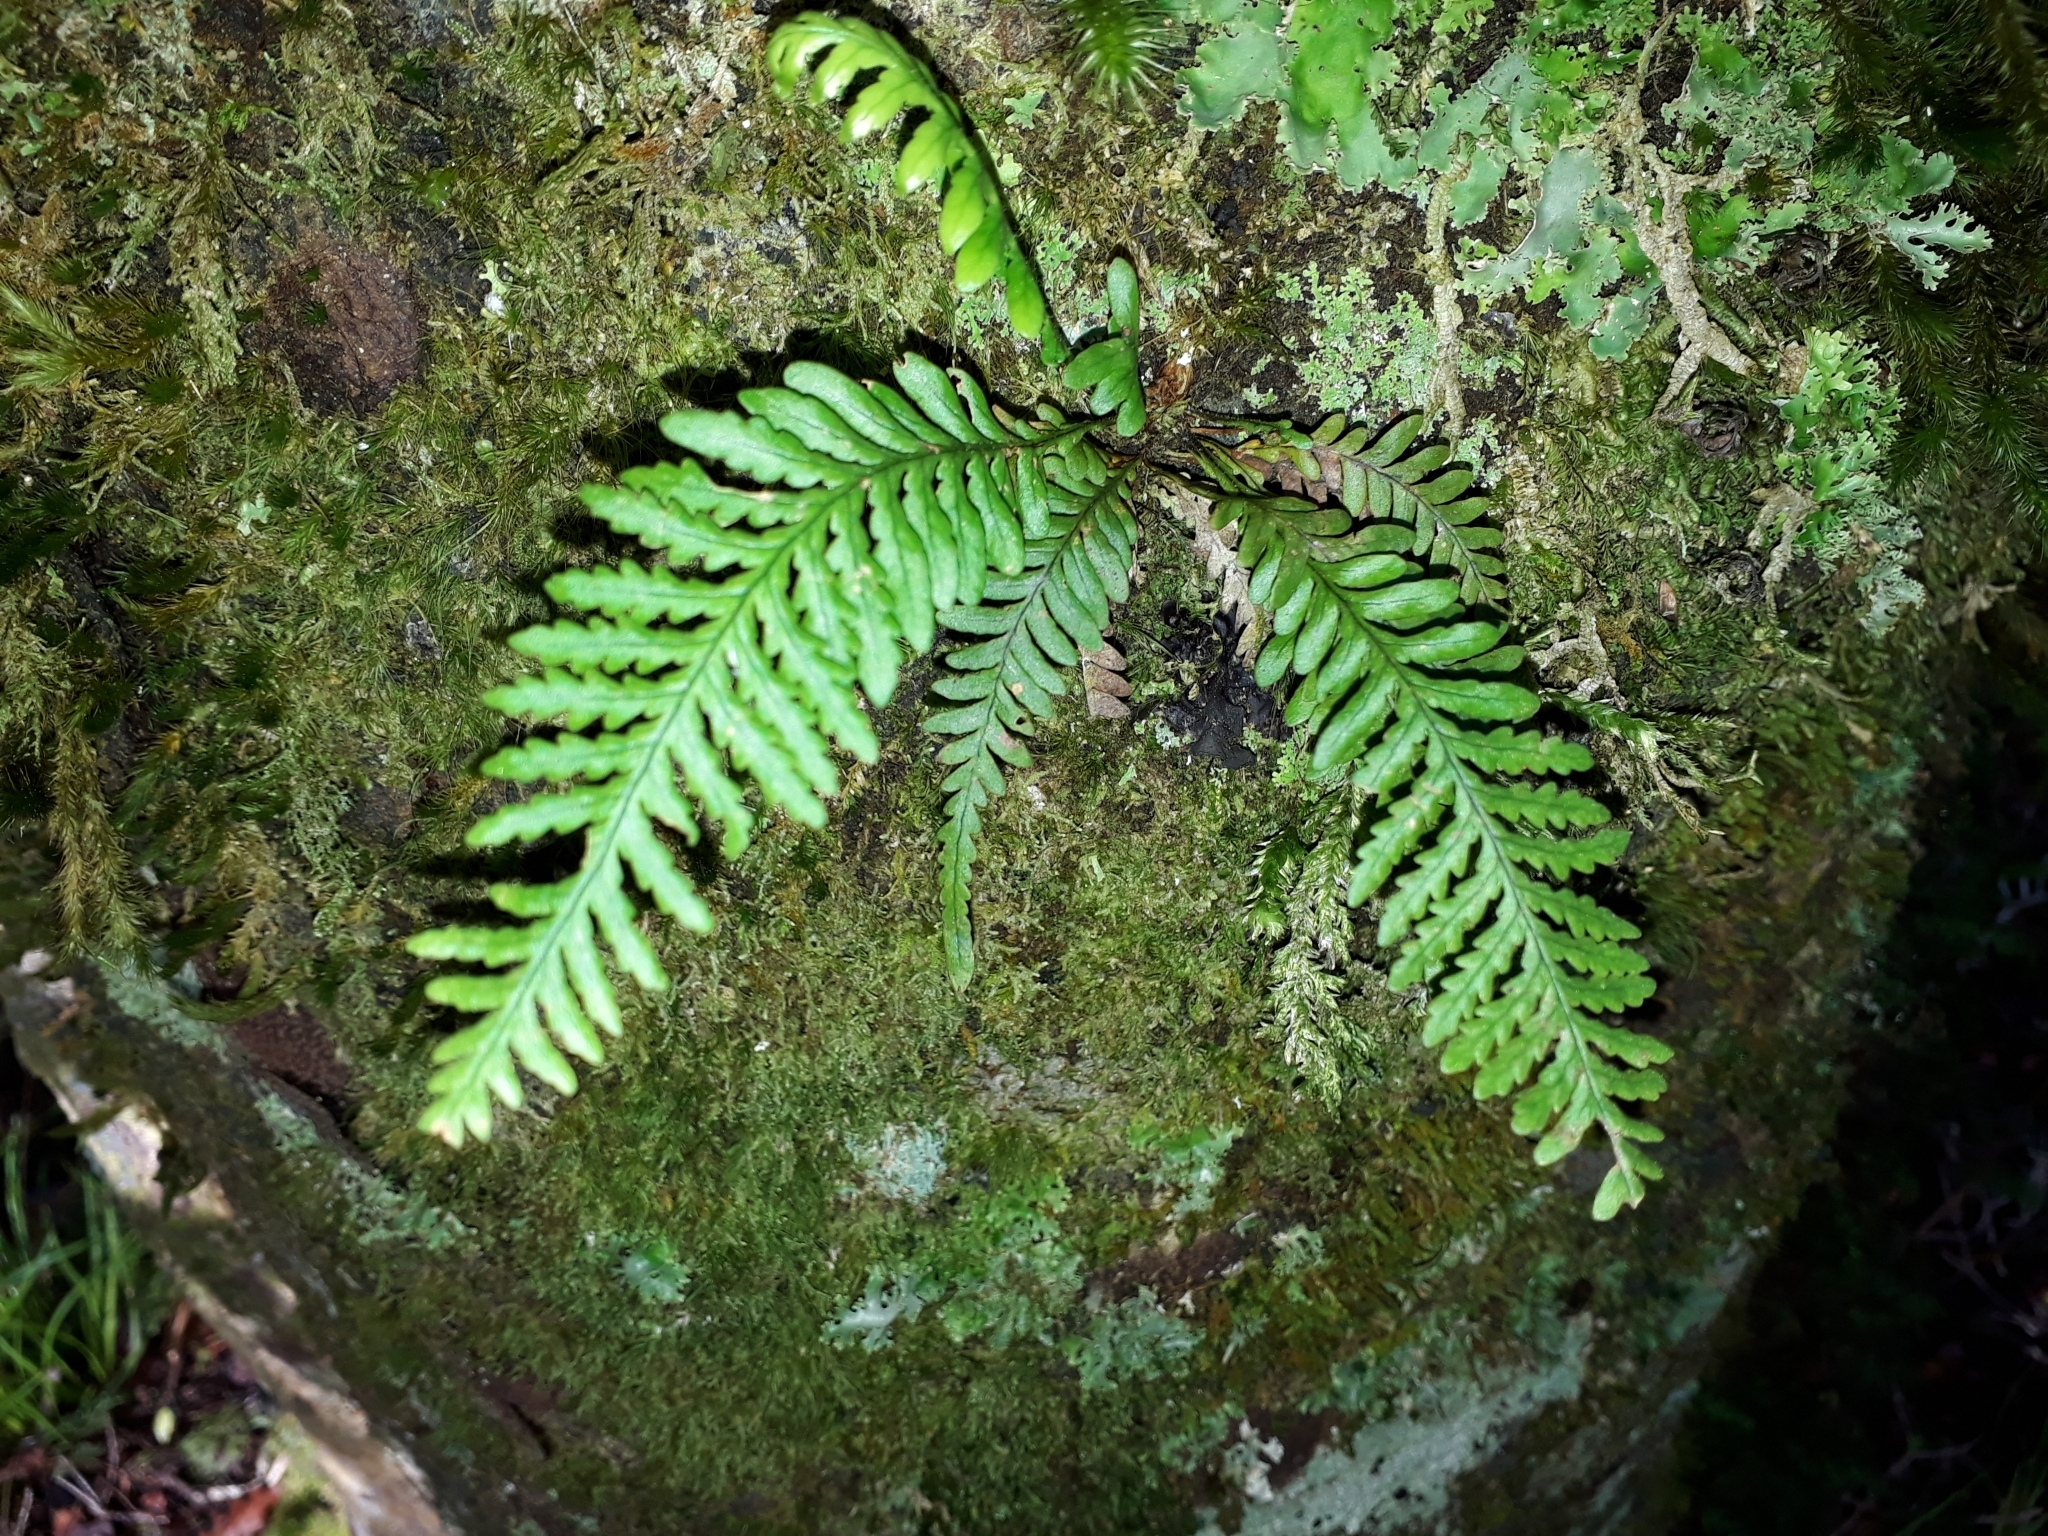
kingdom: Plantae
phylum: Tracheophyta
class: Polypodiopsida
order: Polypodiales
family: Polypodiaceae
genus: Notogrammitis
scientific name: Notogrammitis heterophylla
